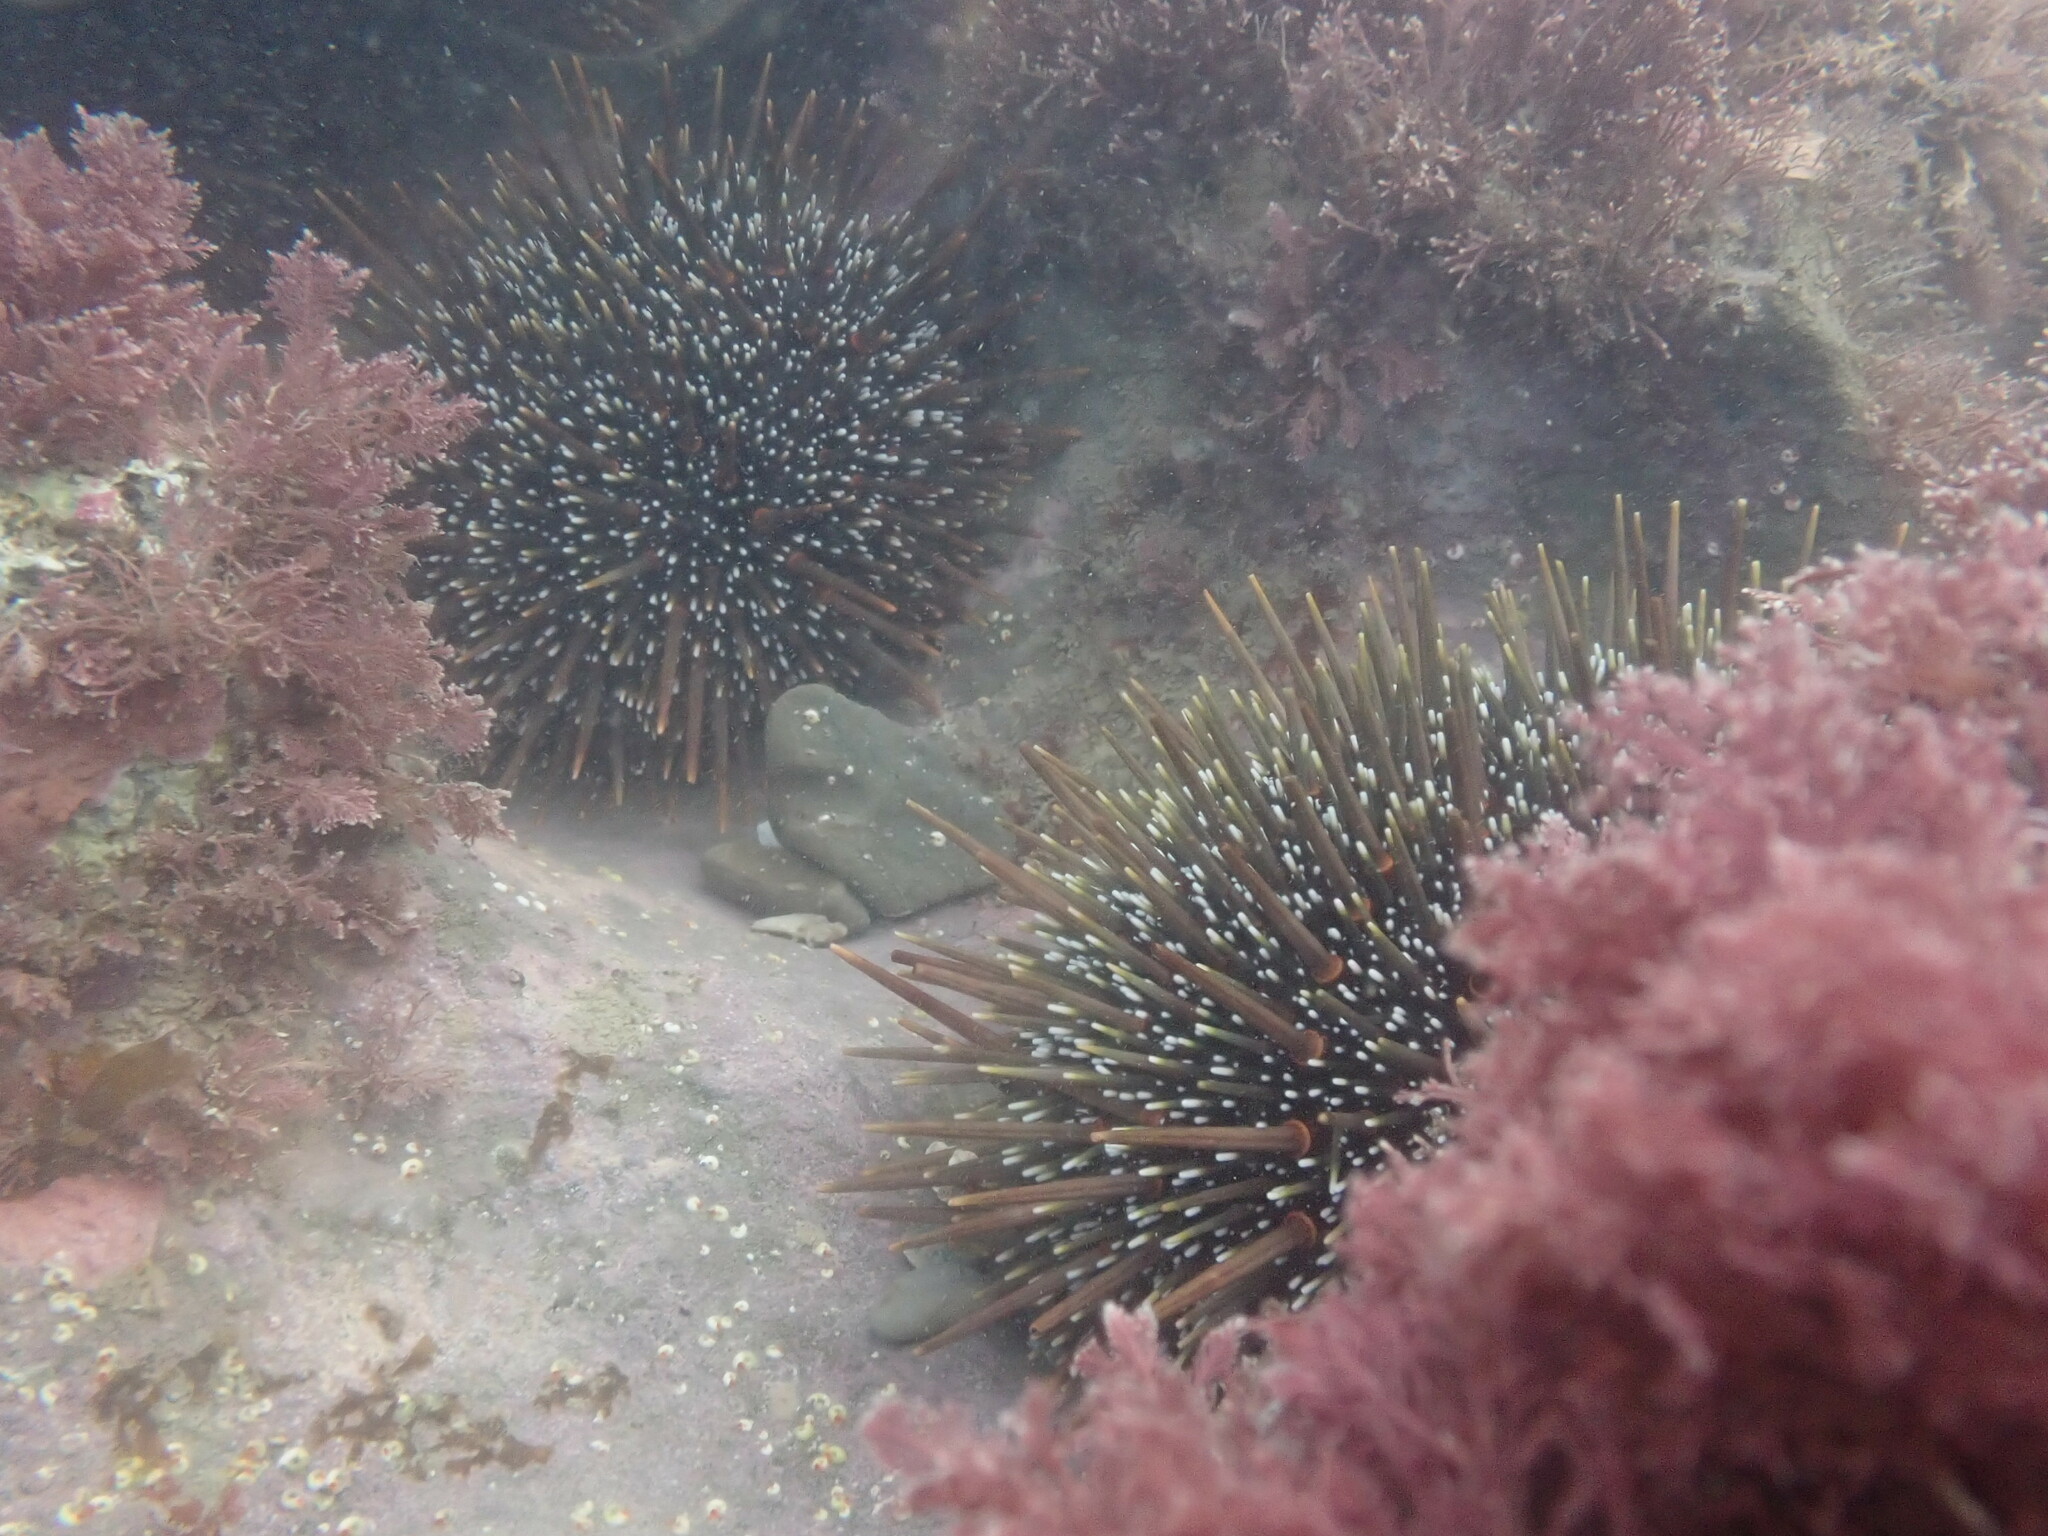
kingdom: Animalia
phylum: Echinodermata
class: Echinoidea
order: Camarodonta
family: Echinometridae
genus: Evechinus
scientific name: Evechinus chloroticus
